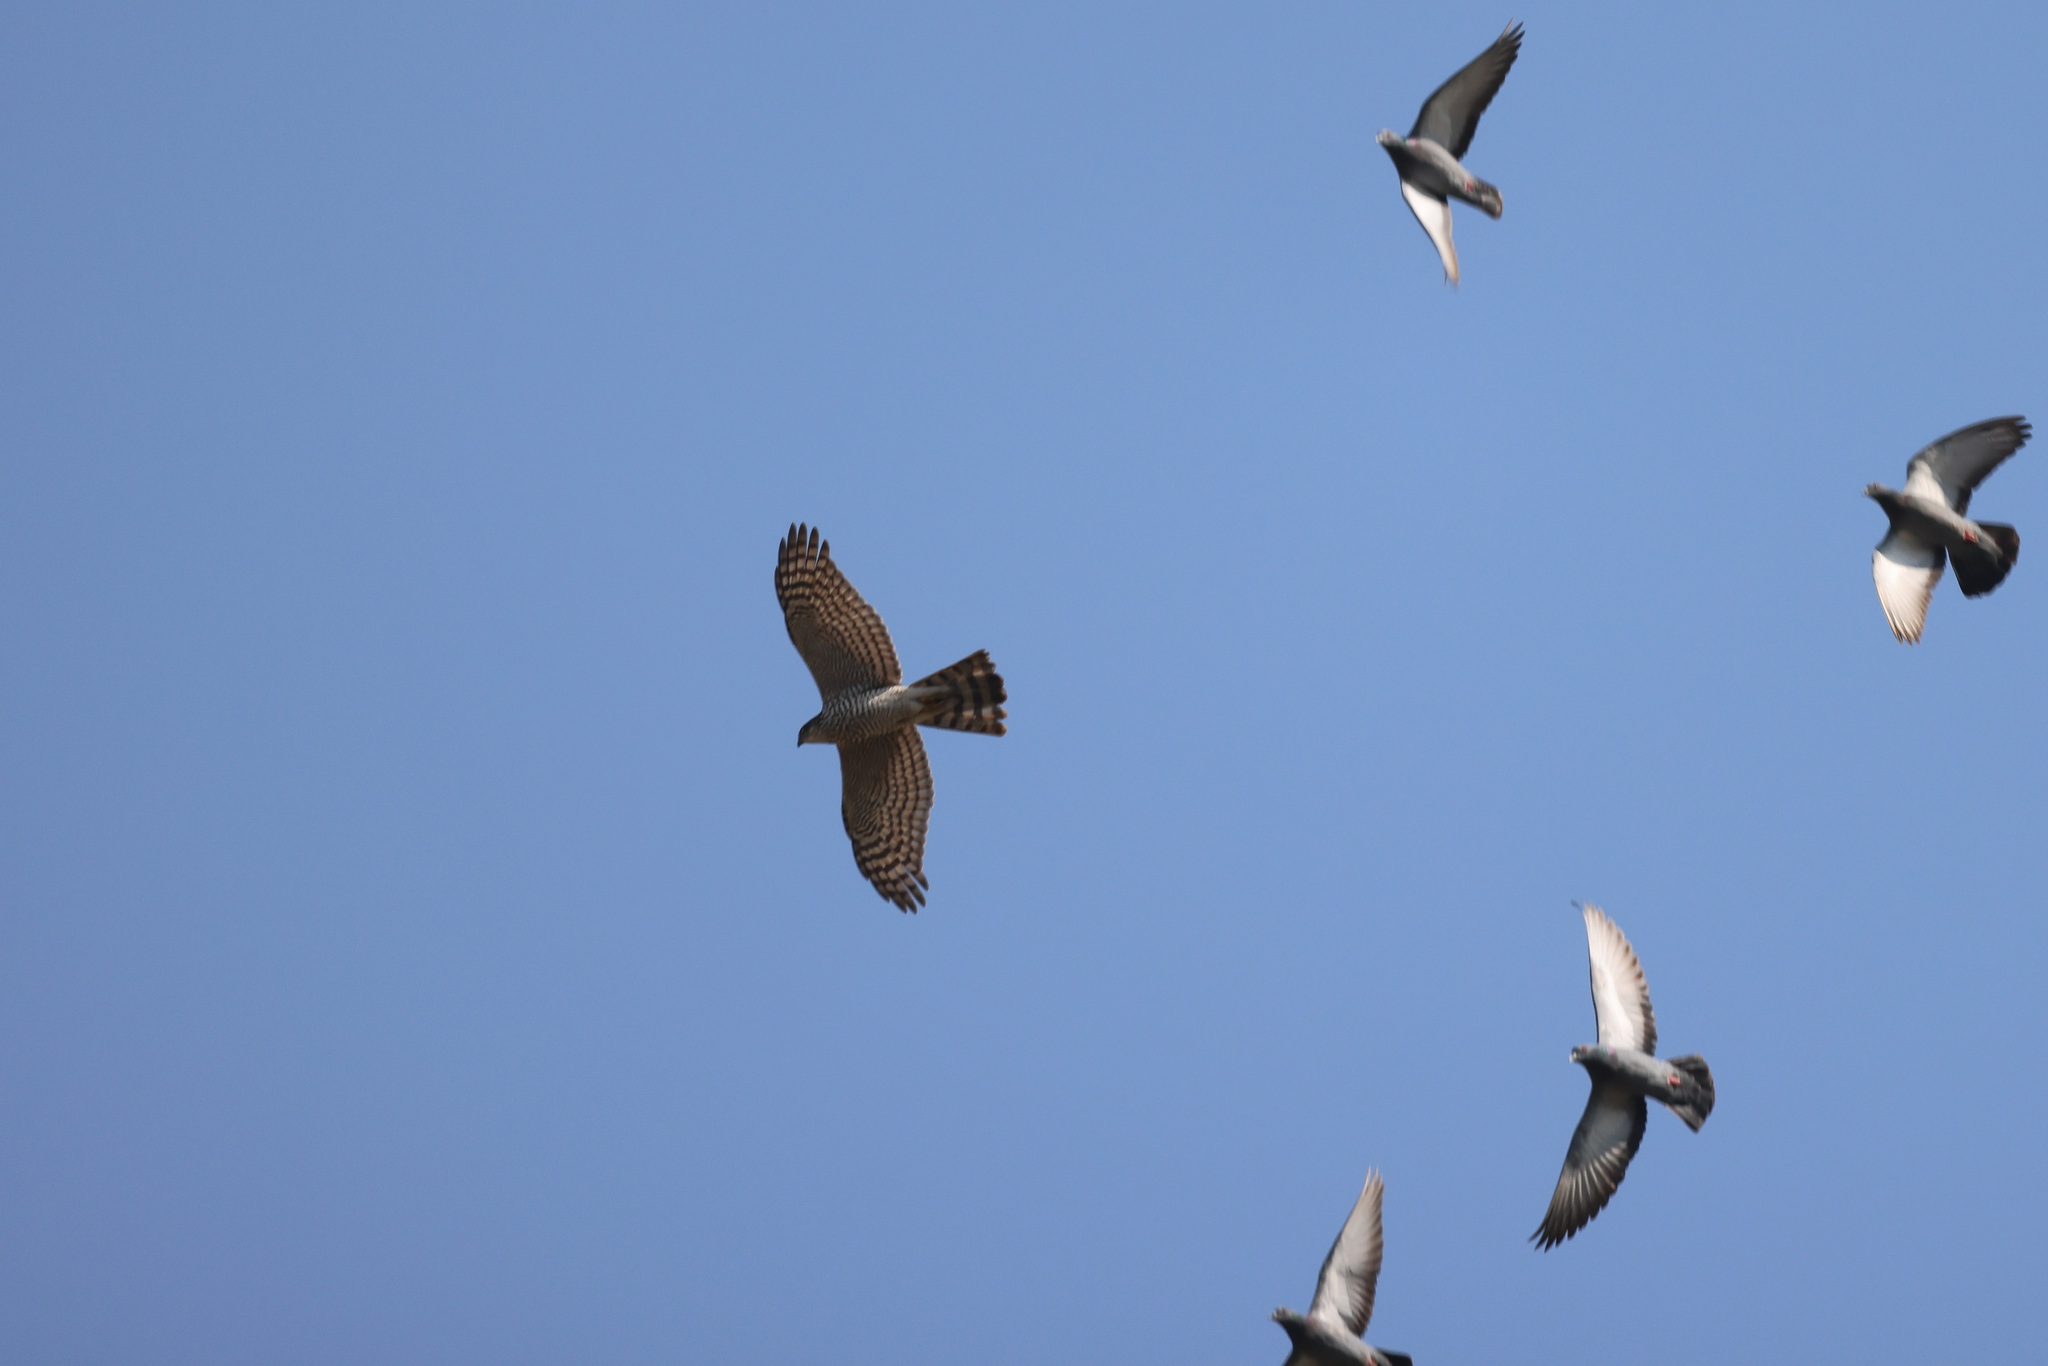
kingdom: Animalia
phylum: Chordata
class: Aves
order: Accipitriformes
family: Accipitridae
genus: Accipiter
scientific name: Accipiter nisus
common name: Eurasian sparrowhawk
